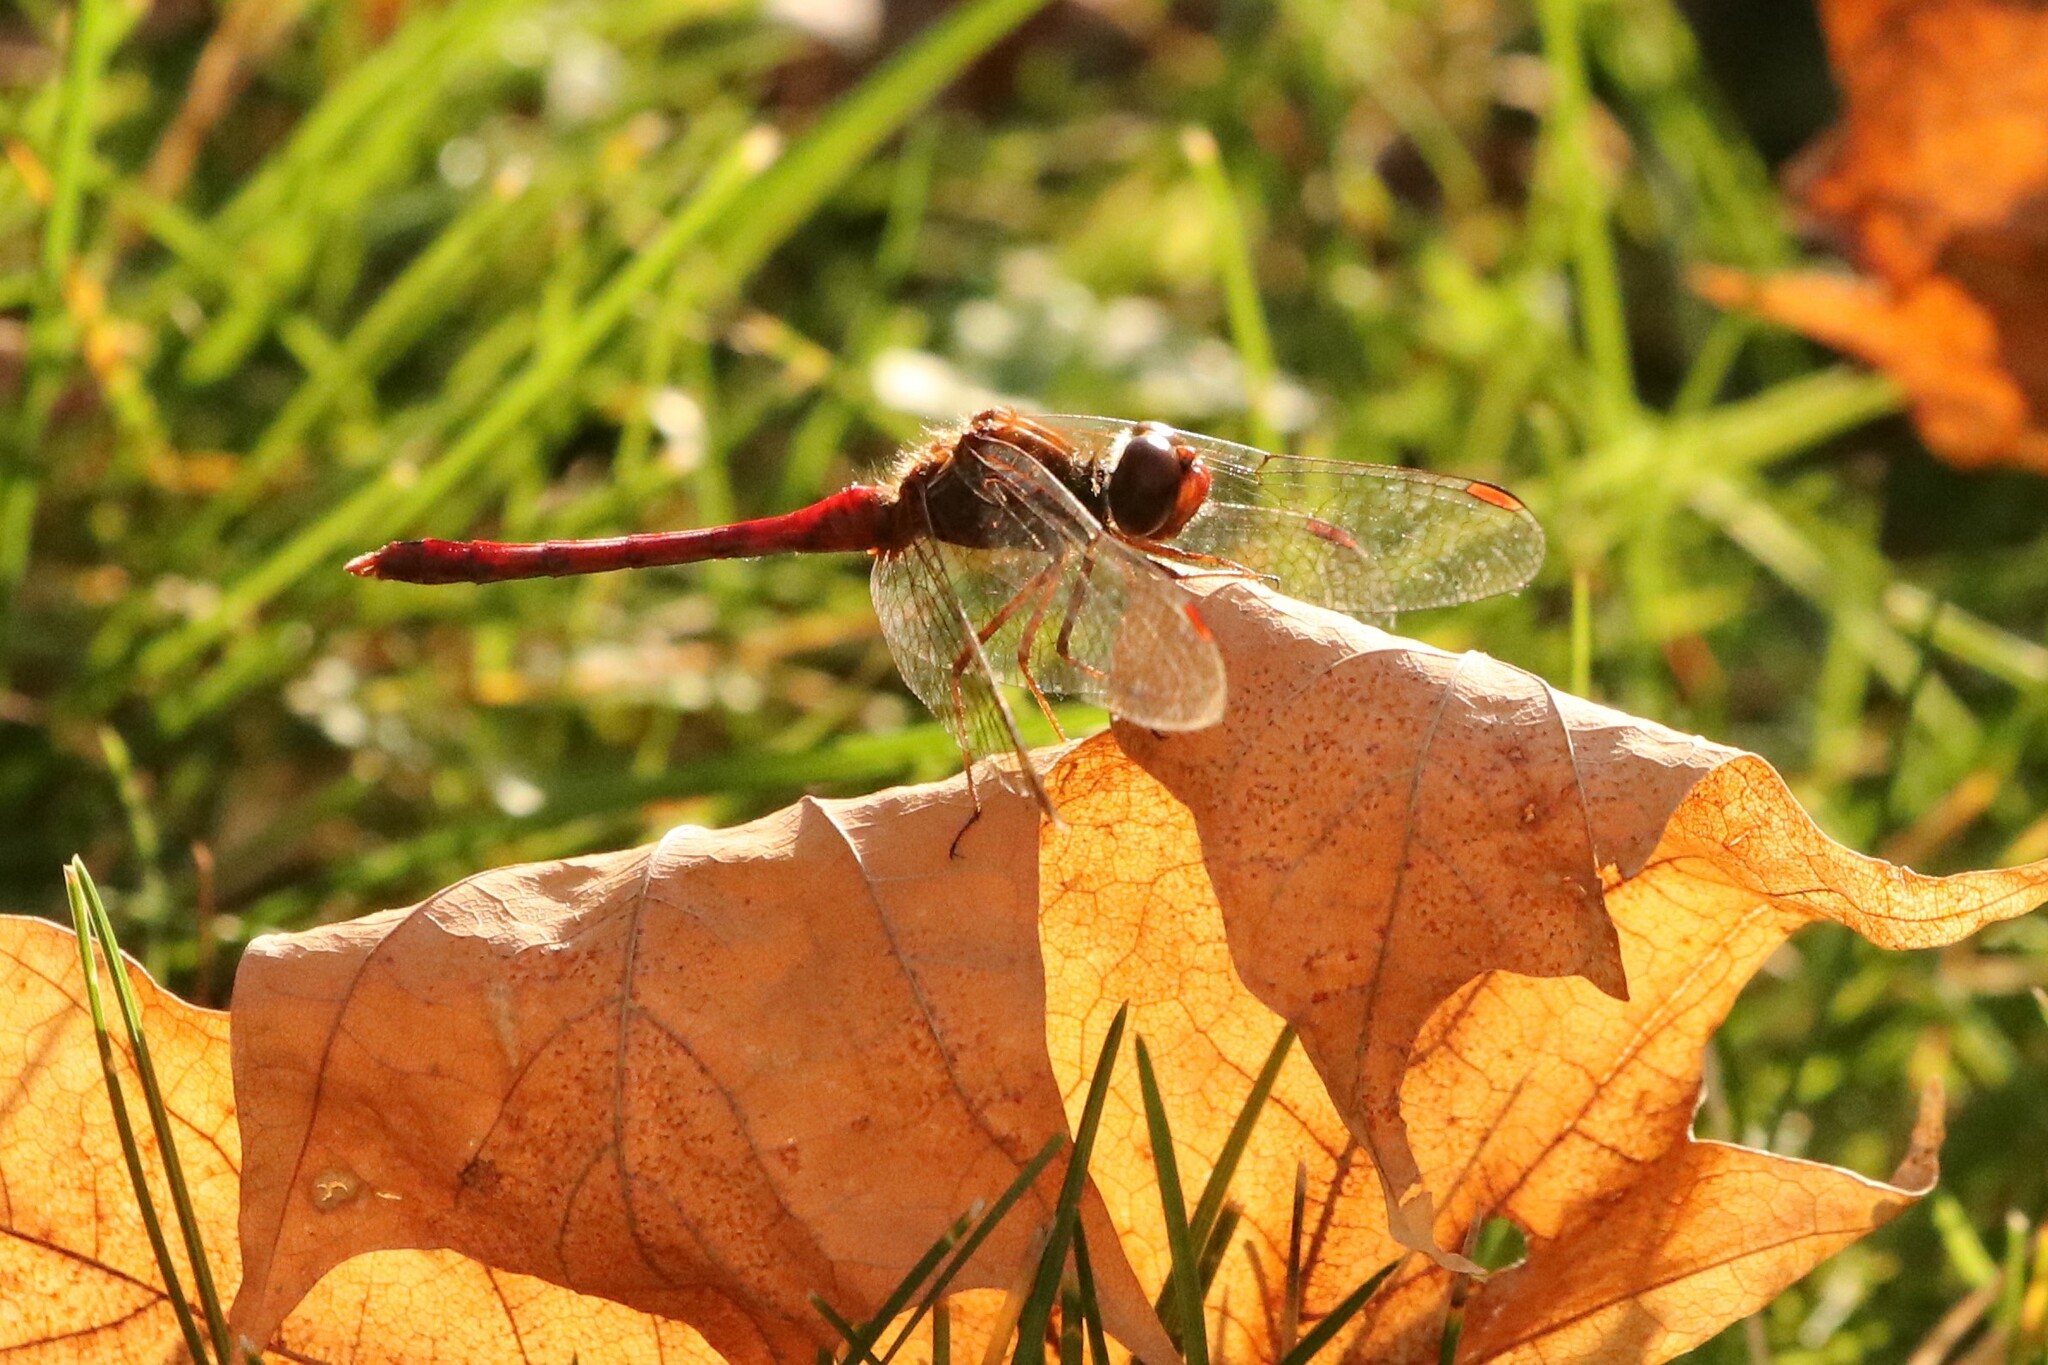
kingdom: Animalia
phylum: Arthropoda
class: Insecta
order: Odonata
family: Libellulidae
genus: Sympetrum
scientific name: Sympetrum vicinum
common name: Autumn meadowhawk
